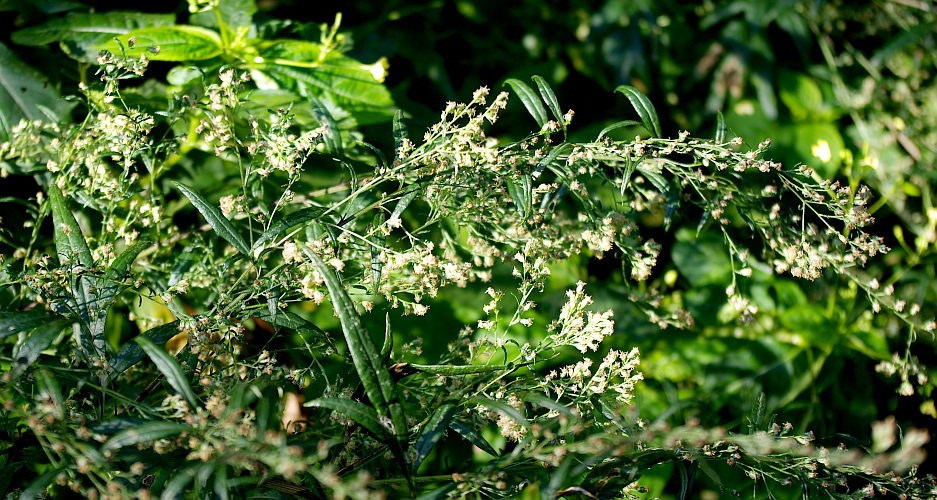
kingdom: Plantae
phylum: Tracheophyta
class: Magnoliopsida
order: Asterales
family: Asteraceae
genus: Artemisia
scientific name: Artemisia vulgaris
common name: Mugwort
